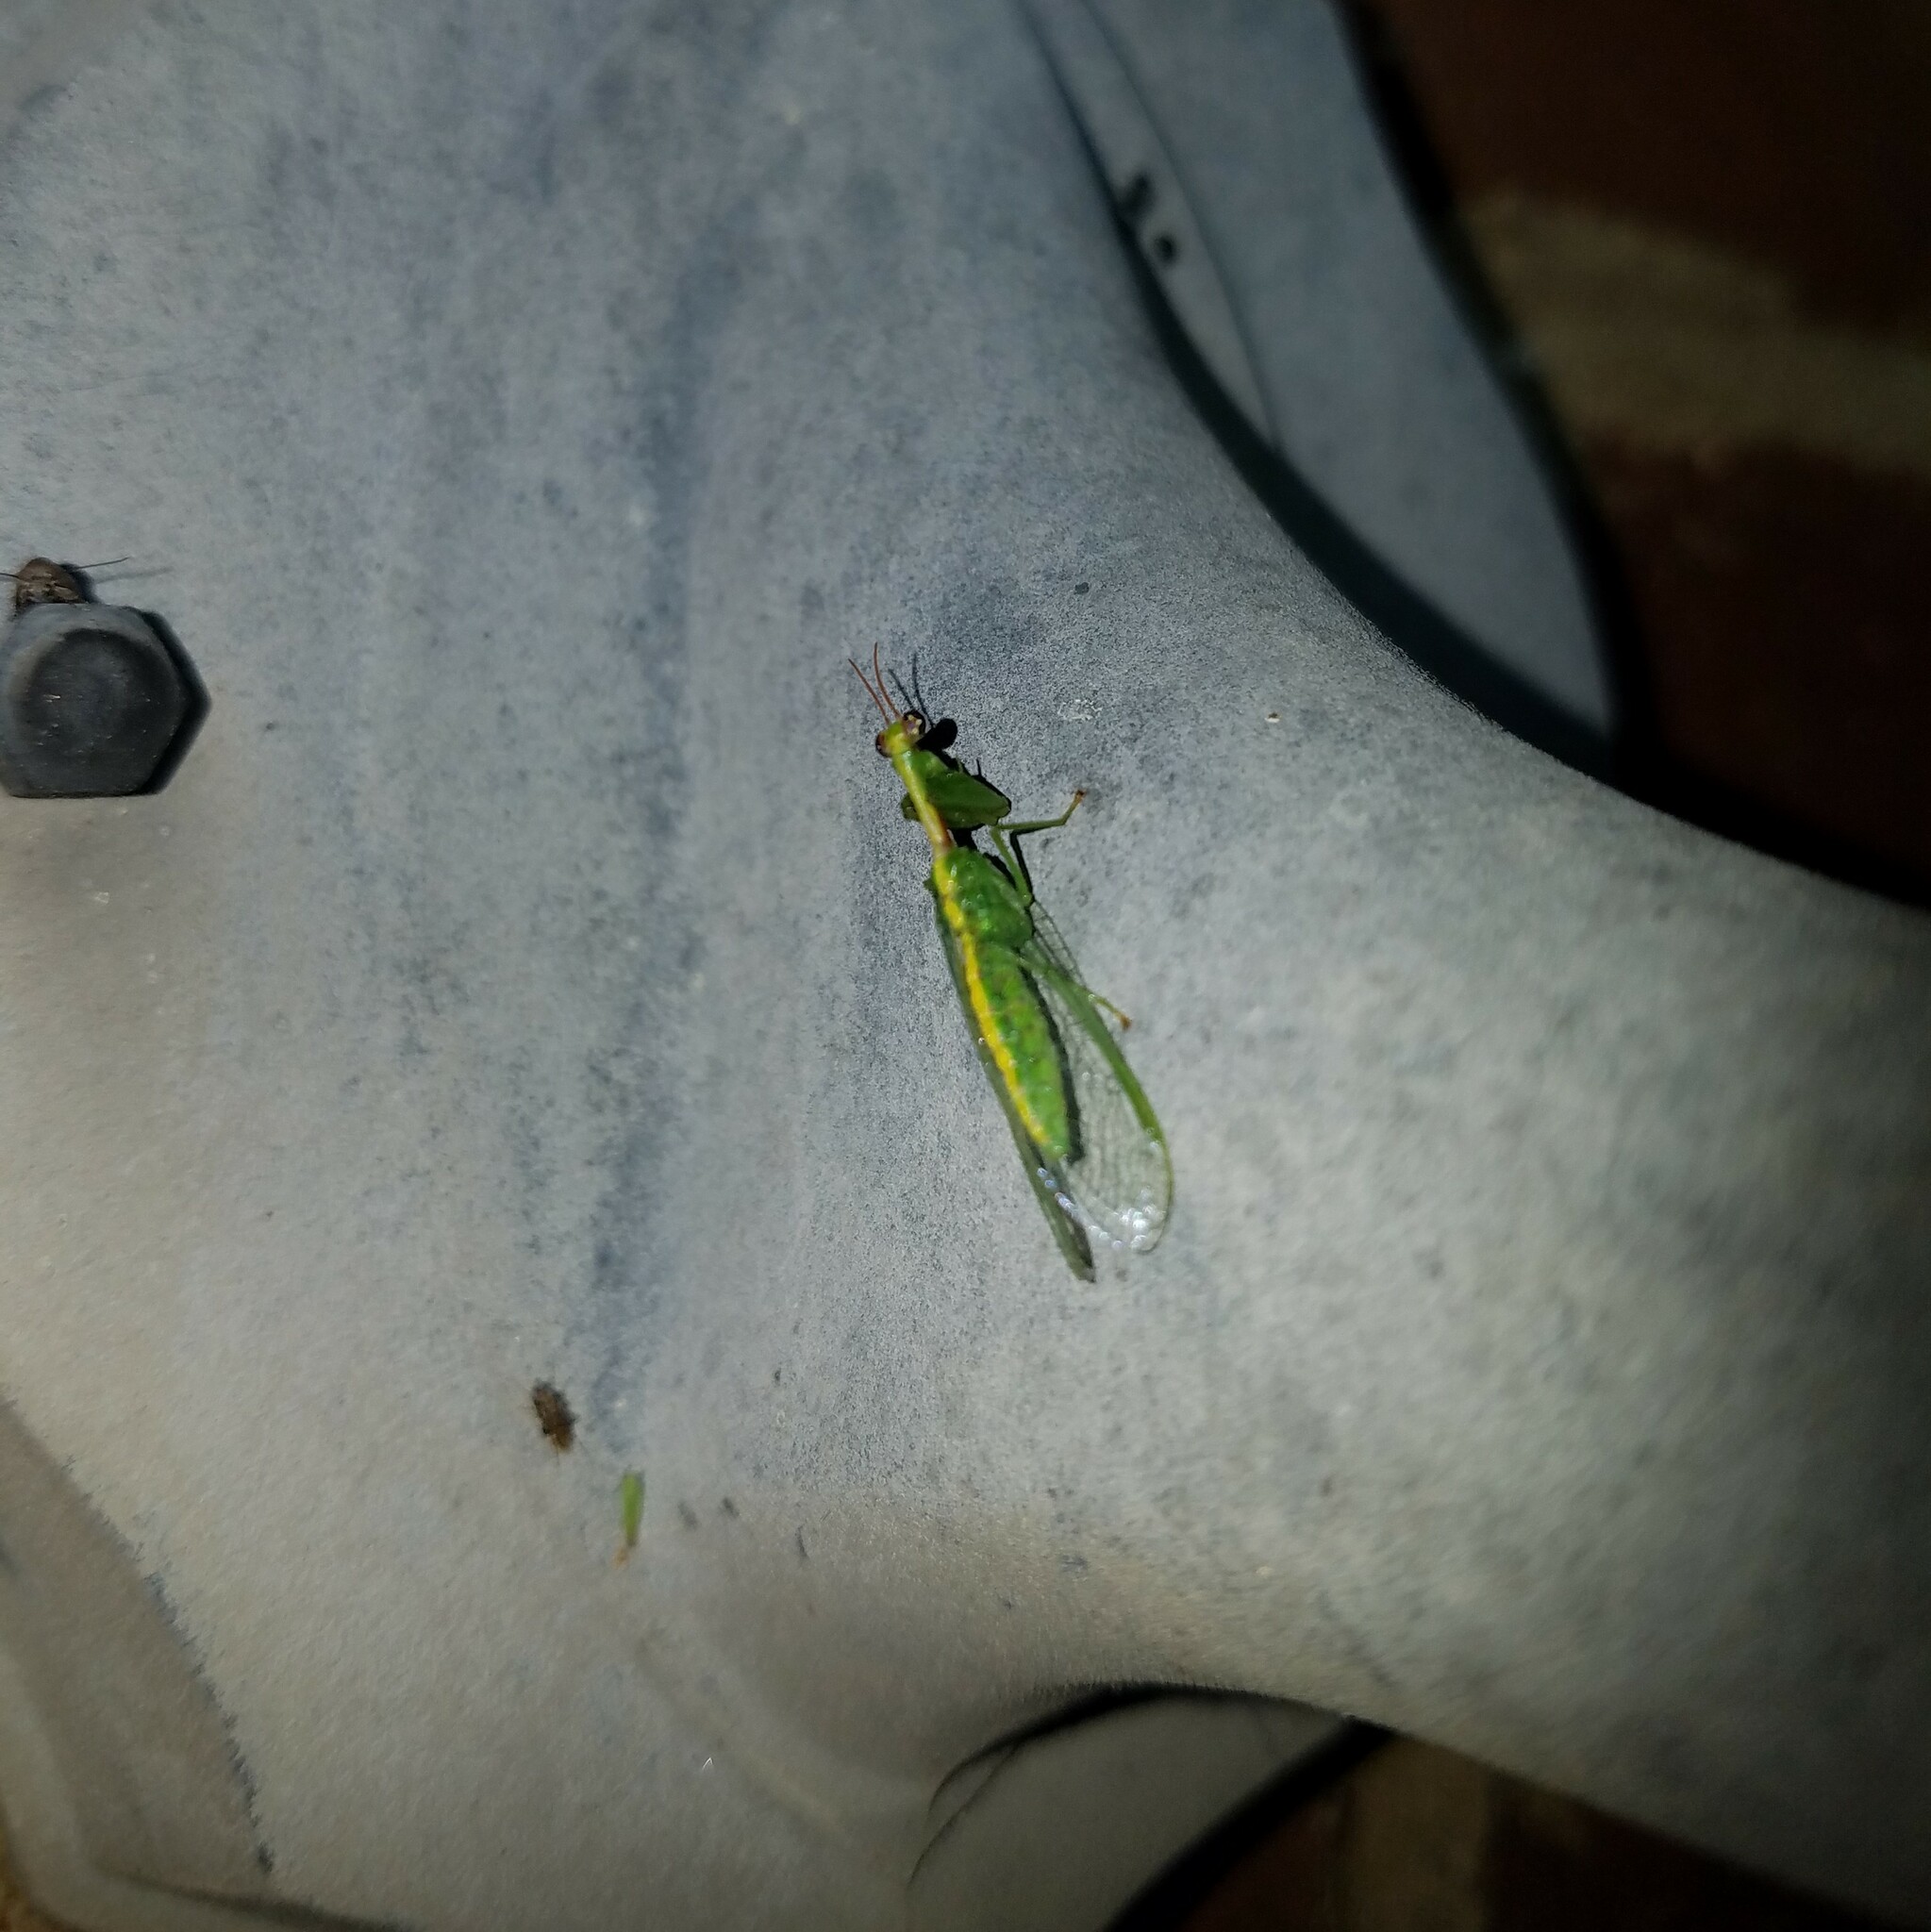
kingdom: Animalia
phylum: Arthropoda
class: Insecta
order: Neuroptera
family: Mantispidae
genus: Zeugomantispa
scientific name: Zeugomantispa minuta
